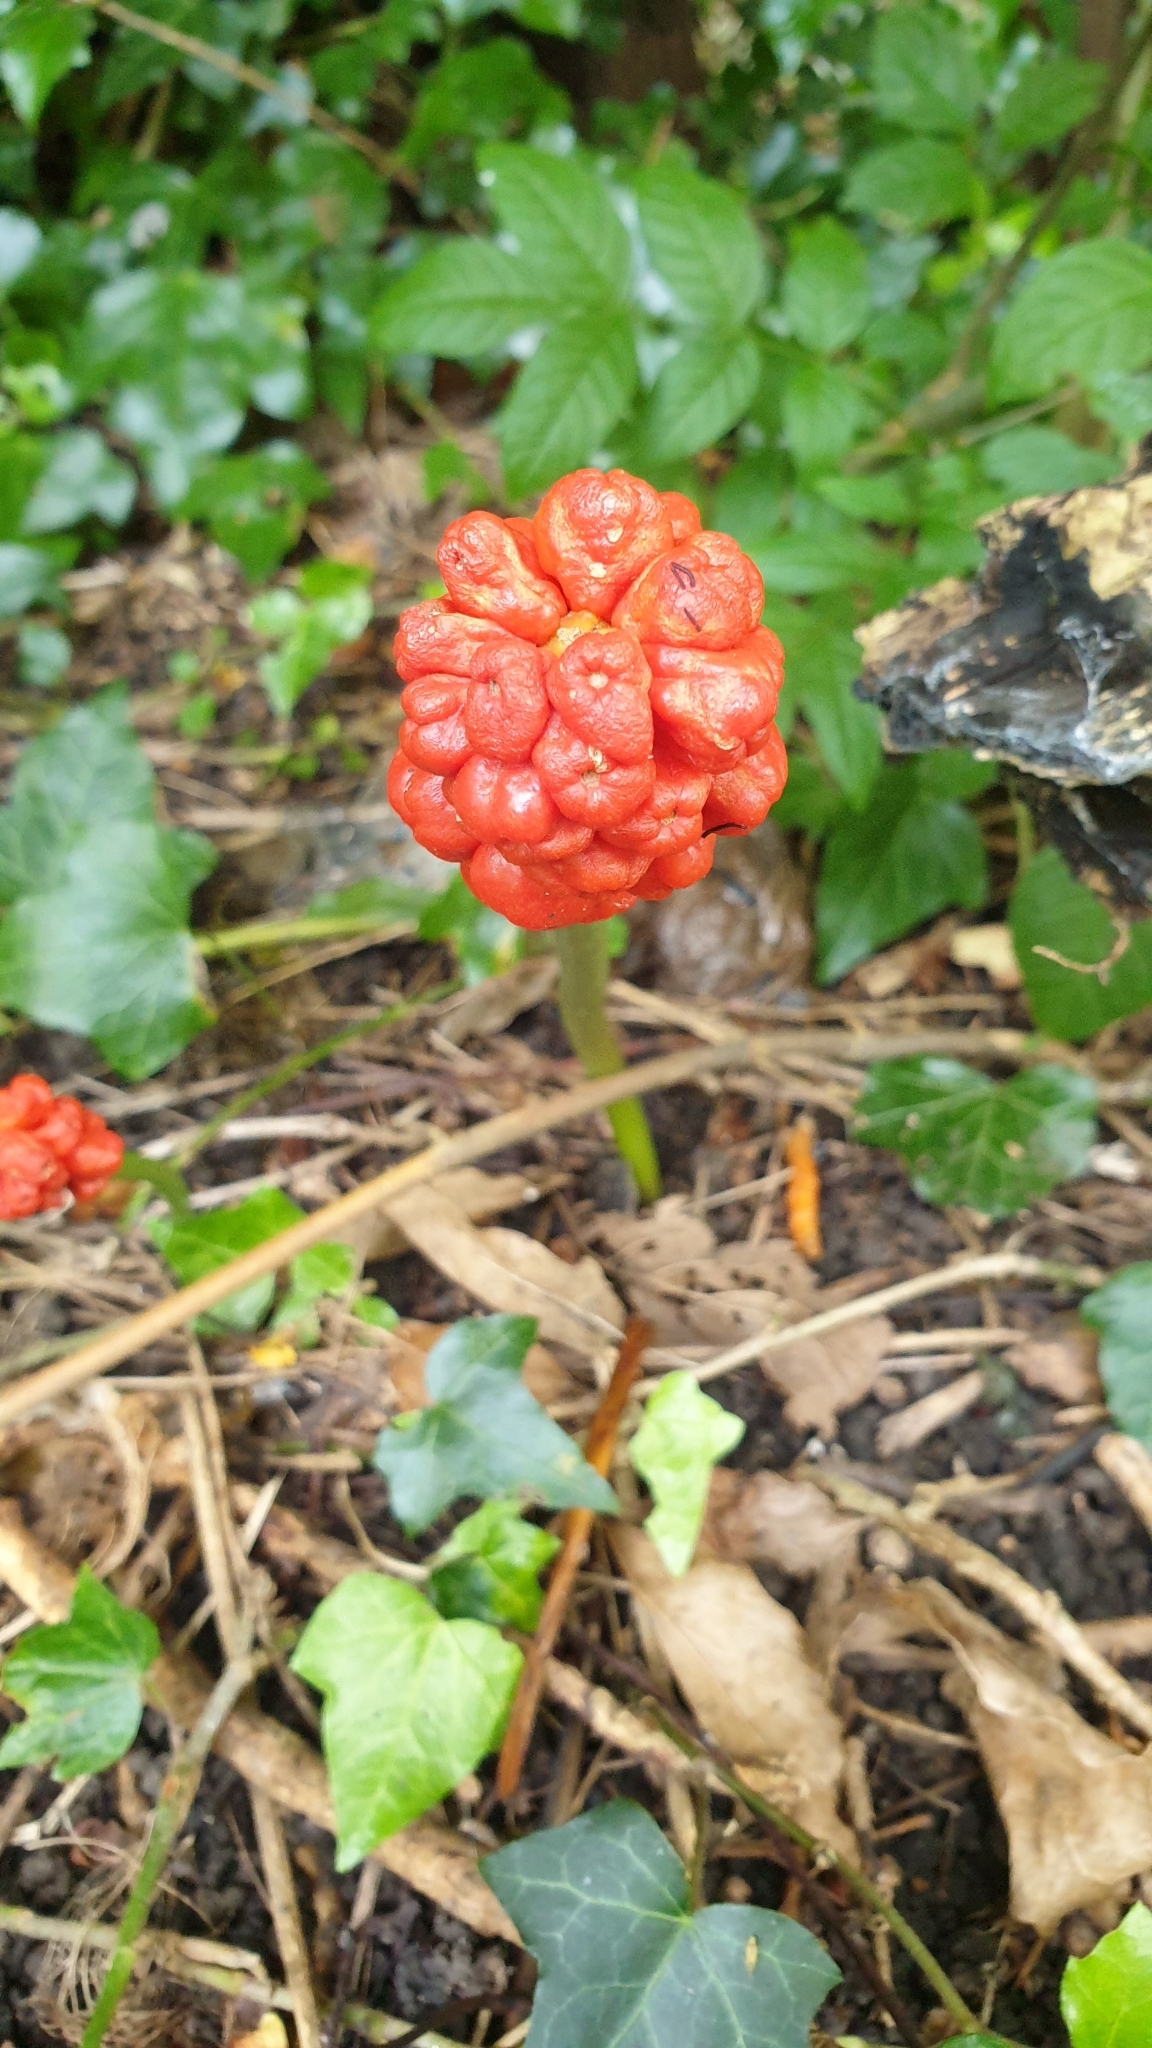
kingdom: Plantae
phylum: Tracheophyta
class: Liliopsida
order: Alismatales
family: Araceae
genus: Arum
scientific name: Arum maculatum
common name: Lords-and-ladies
